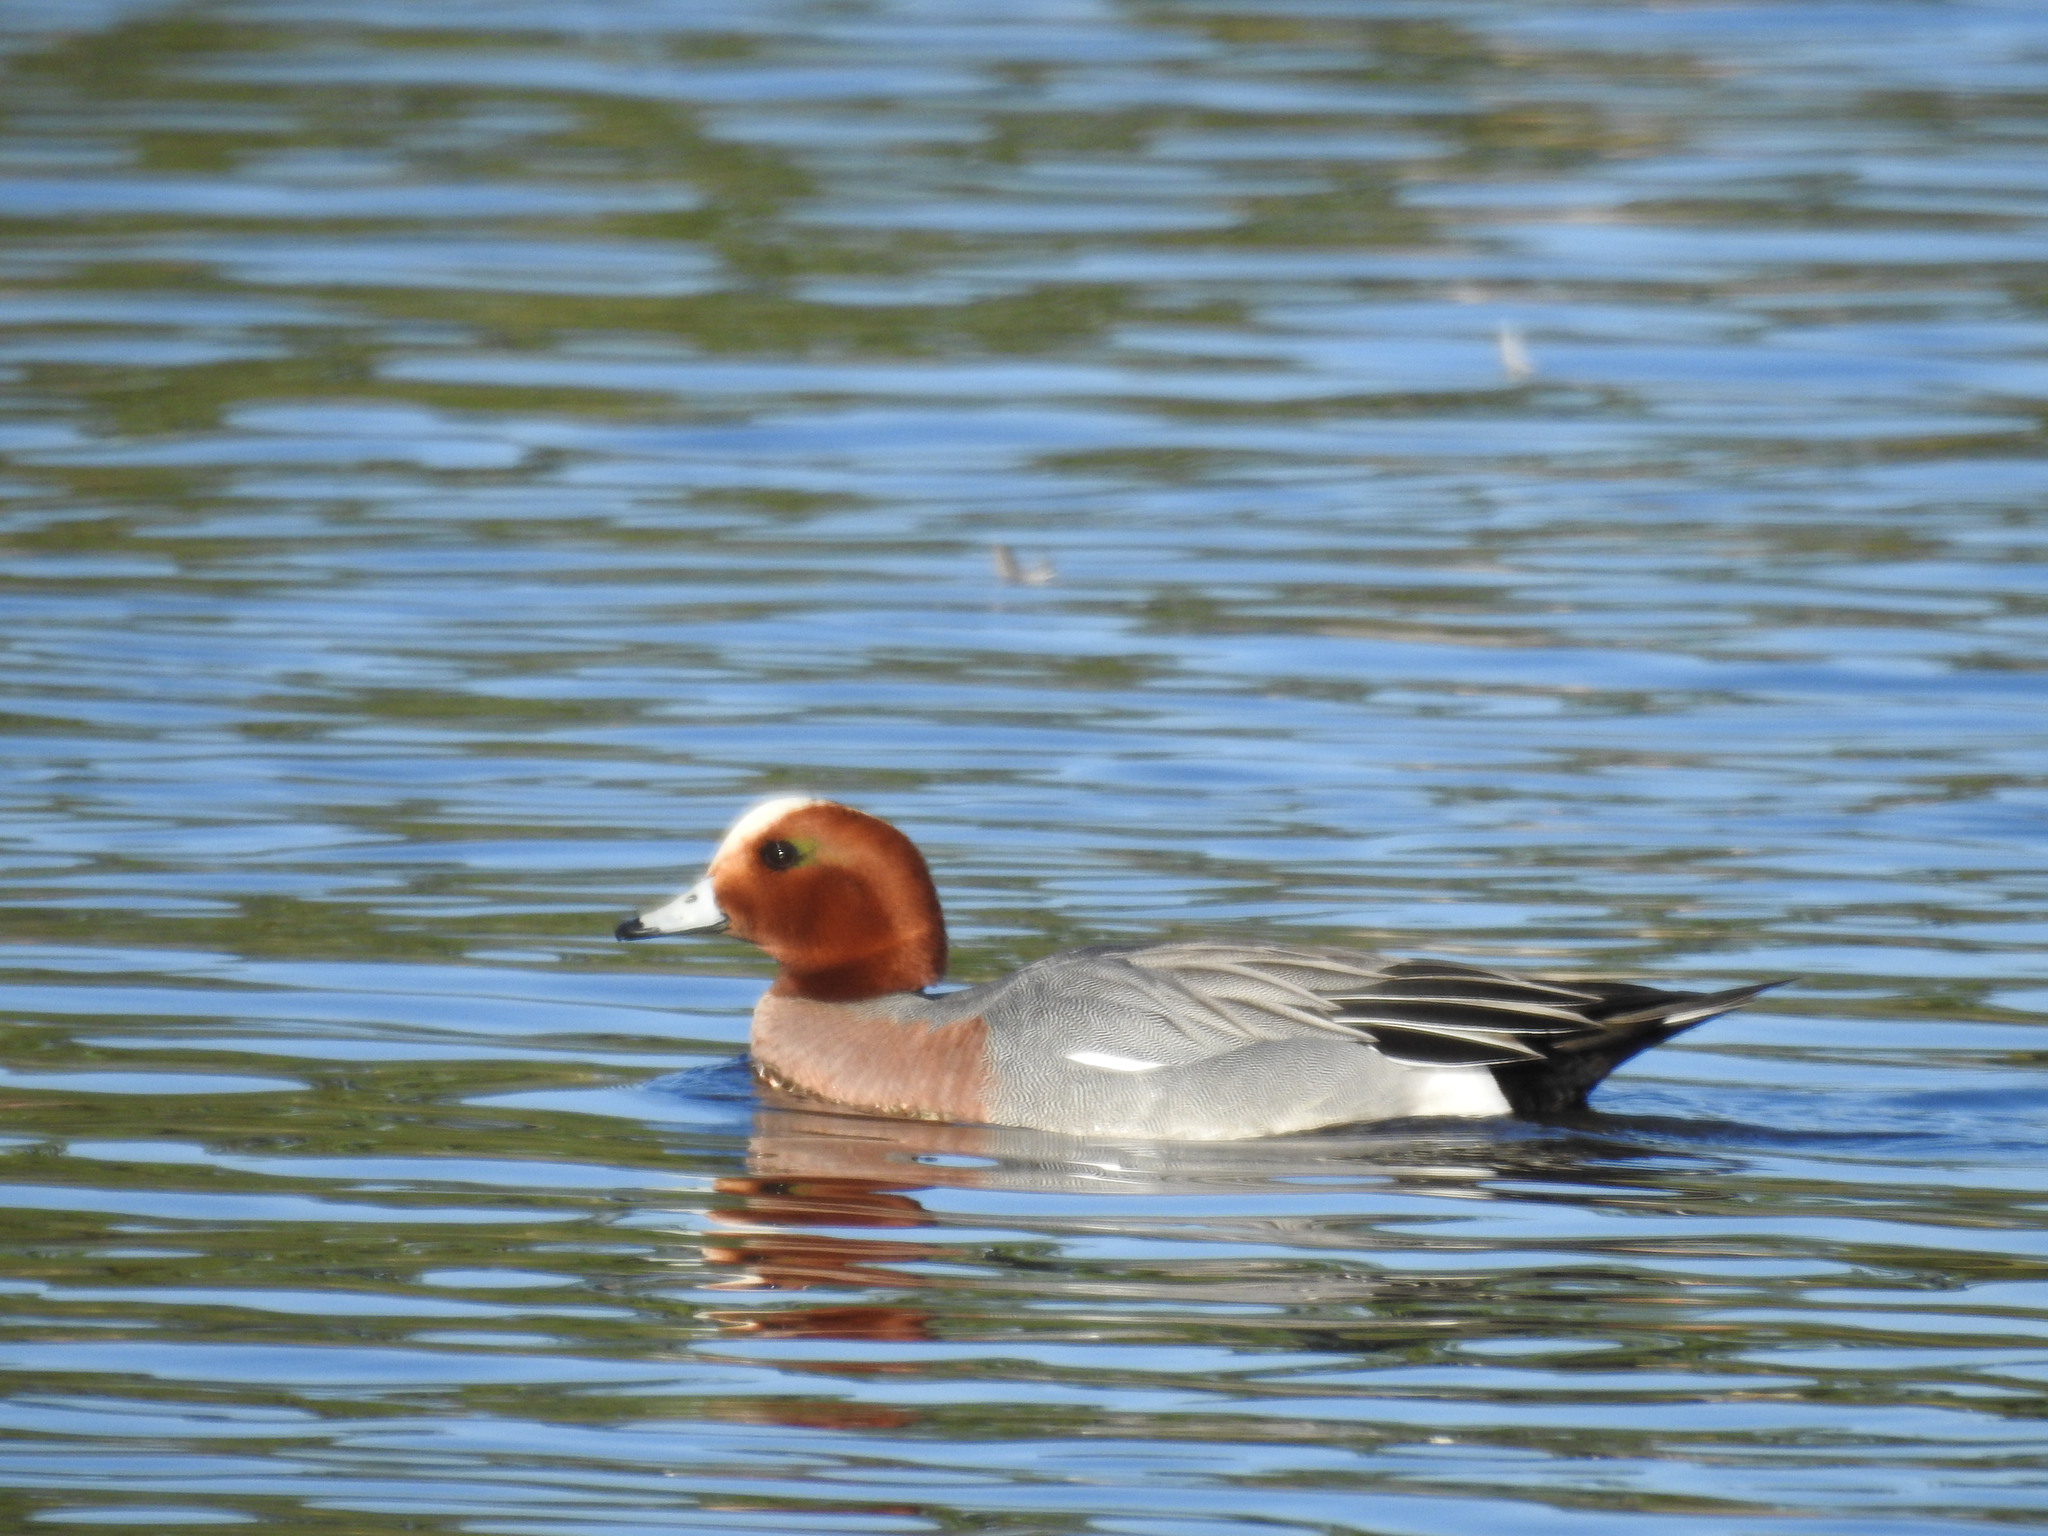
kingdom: Animalia
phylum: Chordata
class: Aves
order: Anseriformes
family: Anatidae
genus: Mareca
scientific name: Mareca penelope
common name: Eurasian wigeon
